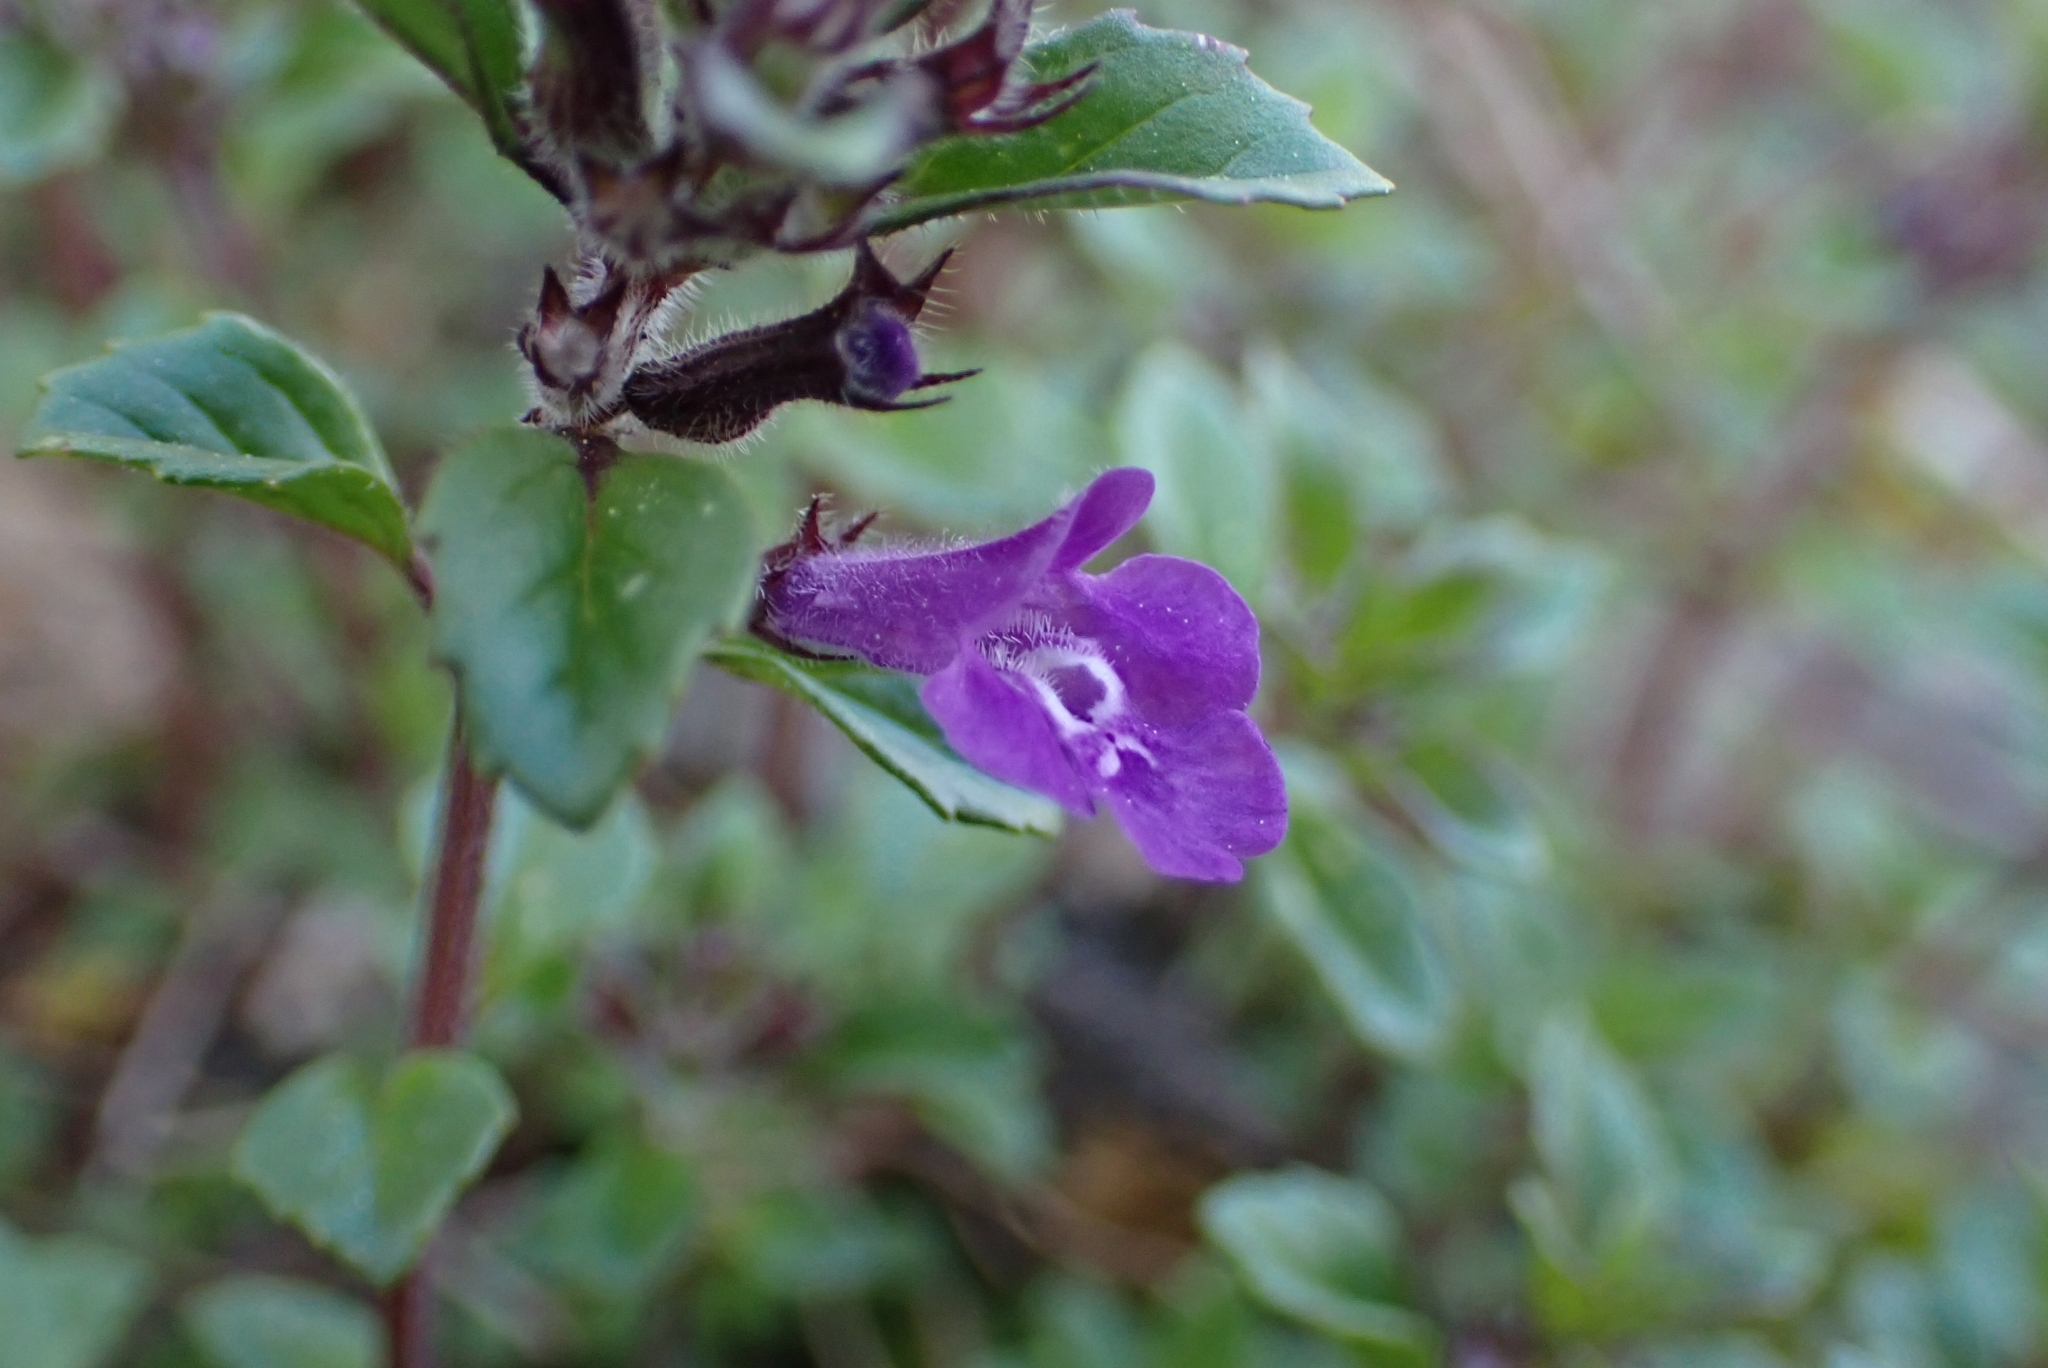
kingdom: Plantae
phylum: Tracheophyta
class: Magnoliopsida
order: Lamiales
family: Lamiaceae
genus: Clinopodium
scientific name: Clinopodium alpinum
